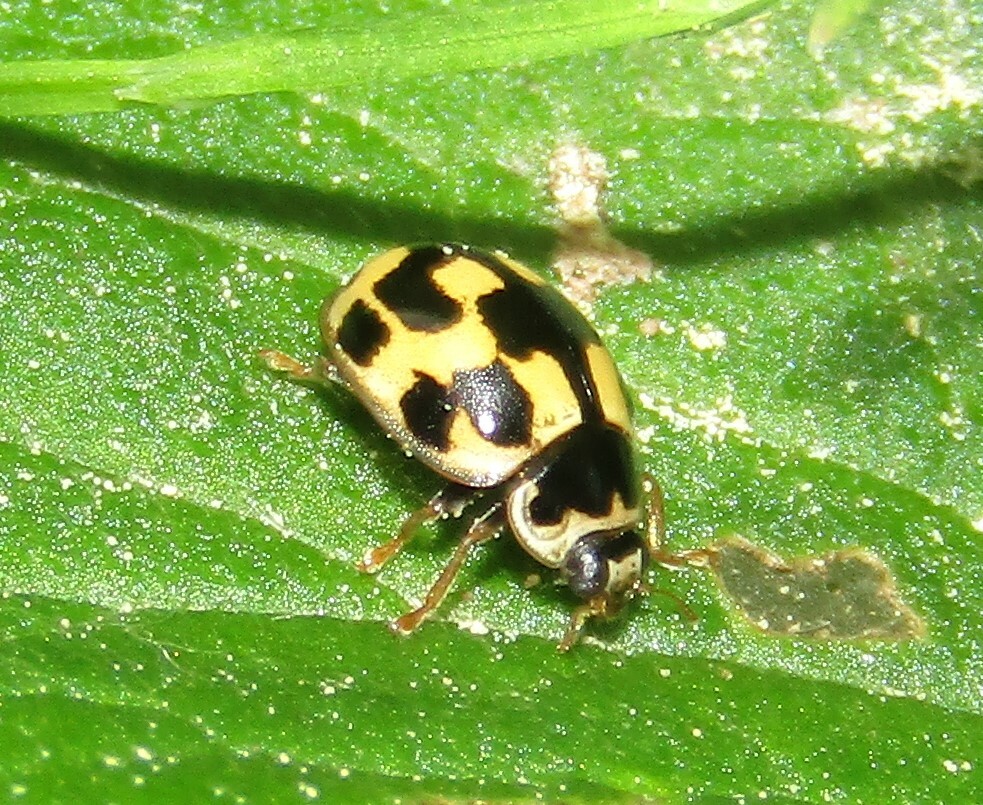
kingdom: Animalia
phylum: Arthropoda
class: Insecta
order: Coleoptera
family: Coccinellidae
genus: Propylaea
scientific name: Propylaea quatuordecimpunctata
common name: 14-spotted ladybird beetle
